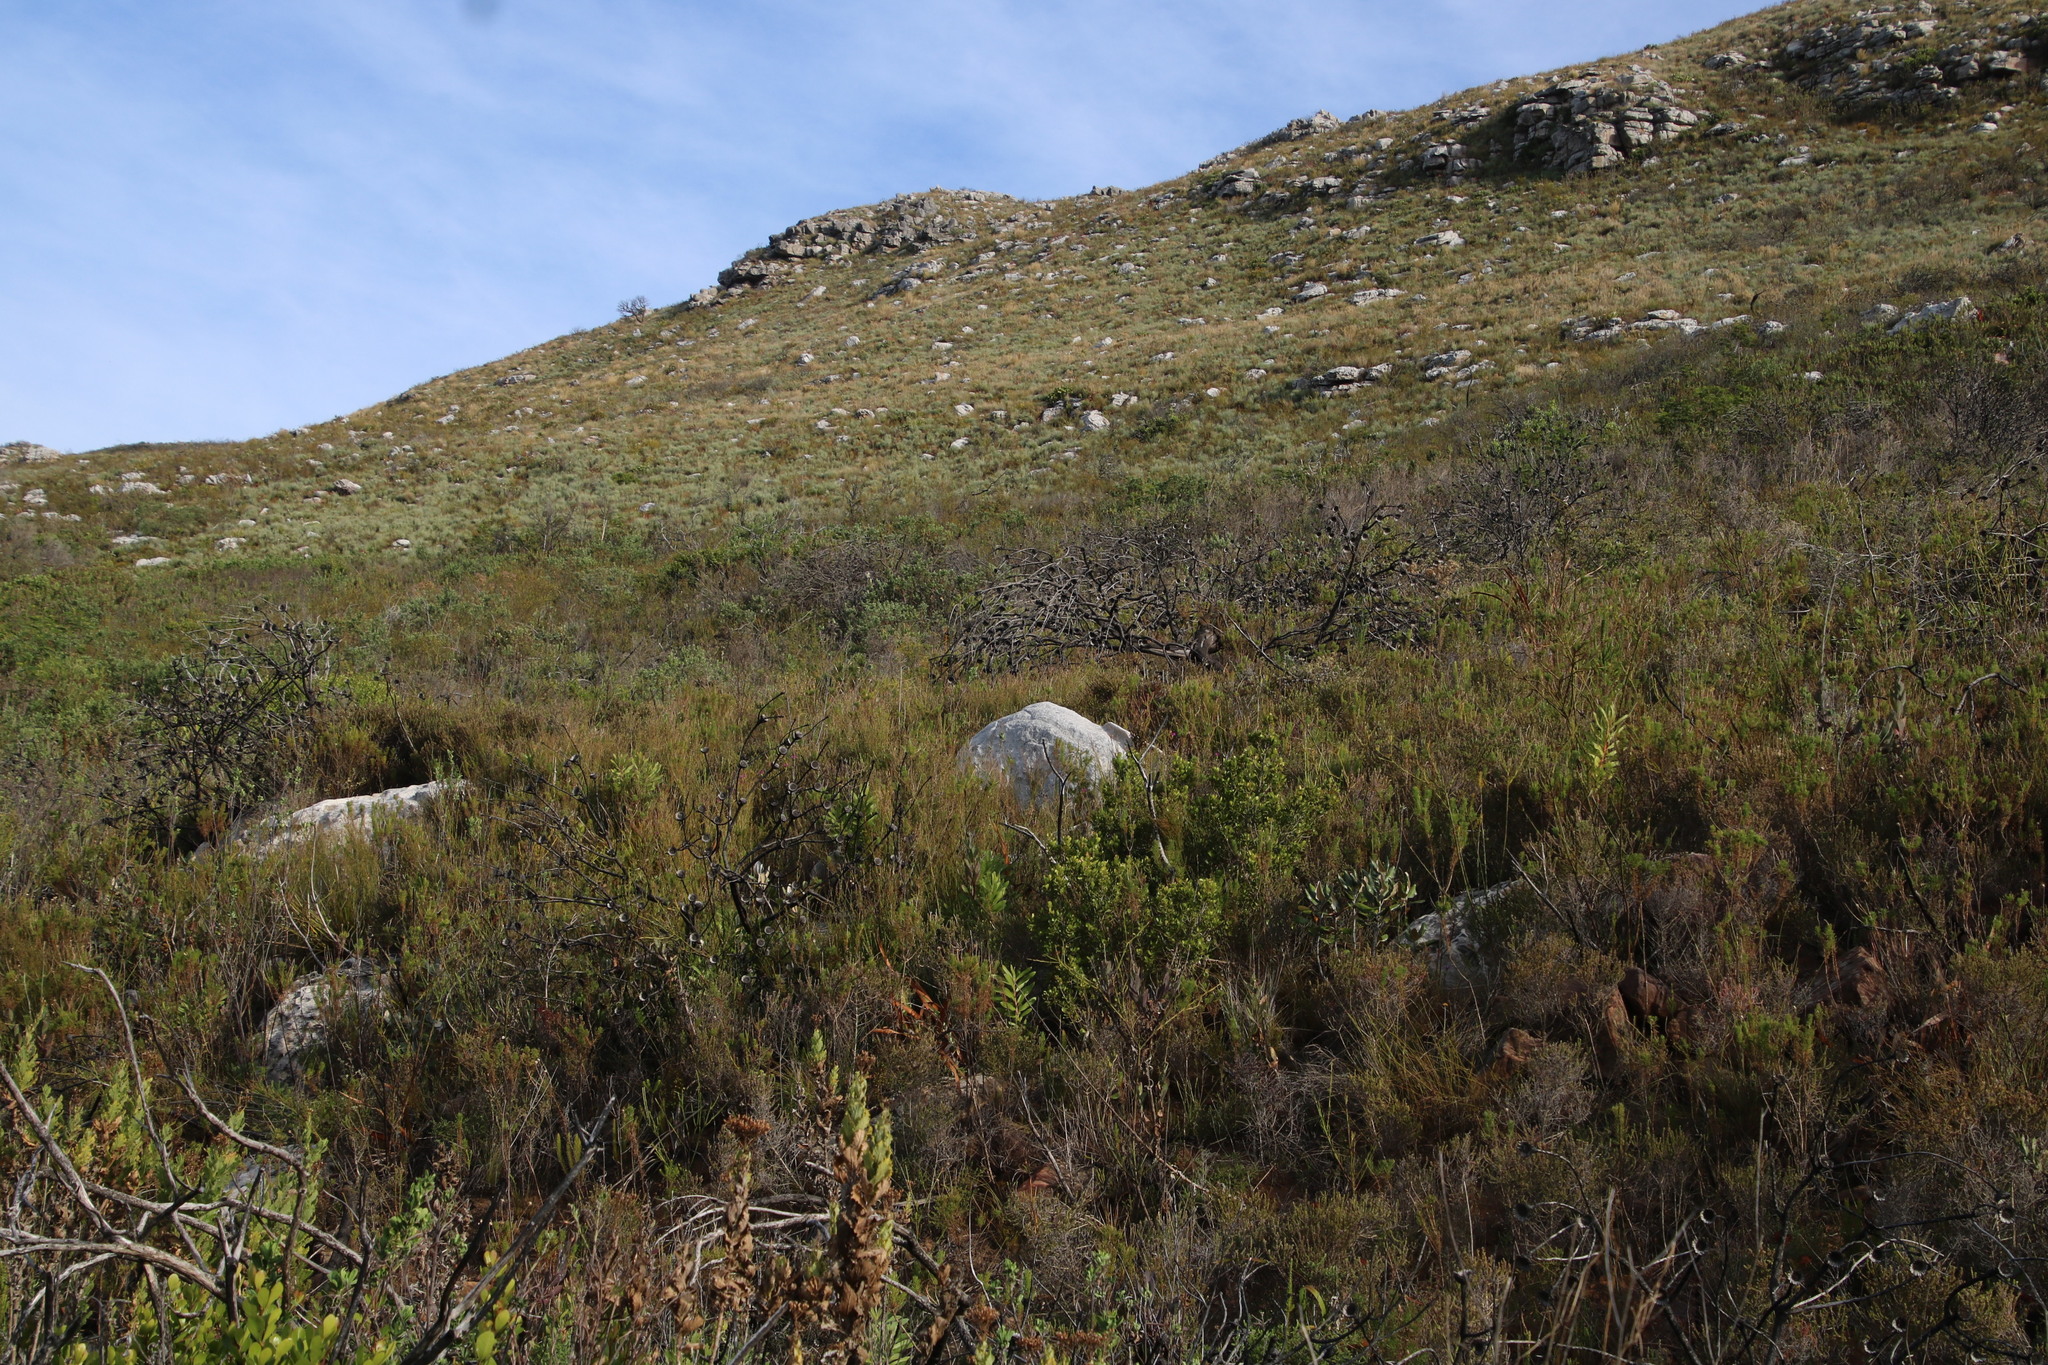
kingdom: Plantae
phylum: Tracheophyta
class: Magnoliopsida
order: Proteales
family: Proteaceae
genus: Protea
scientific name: Protea lepidocarpodendron
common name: Black-bearded protea
